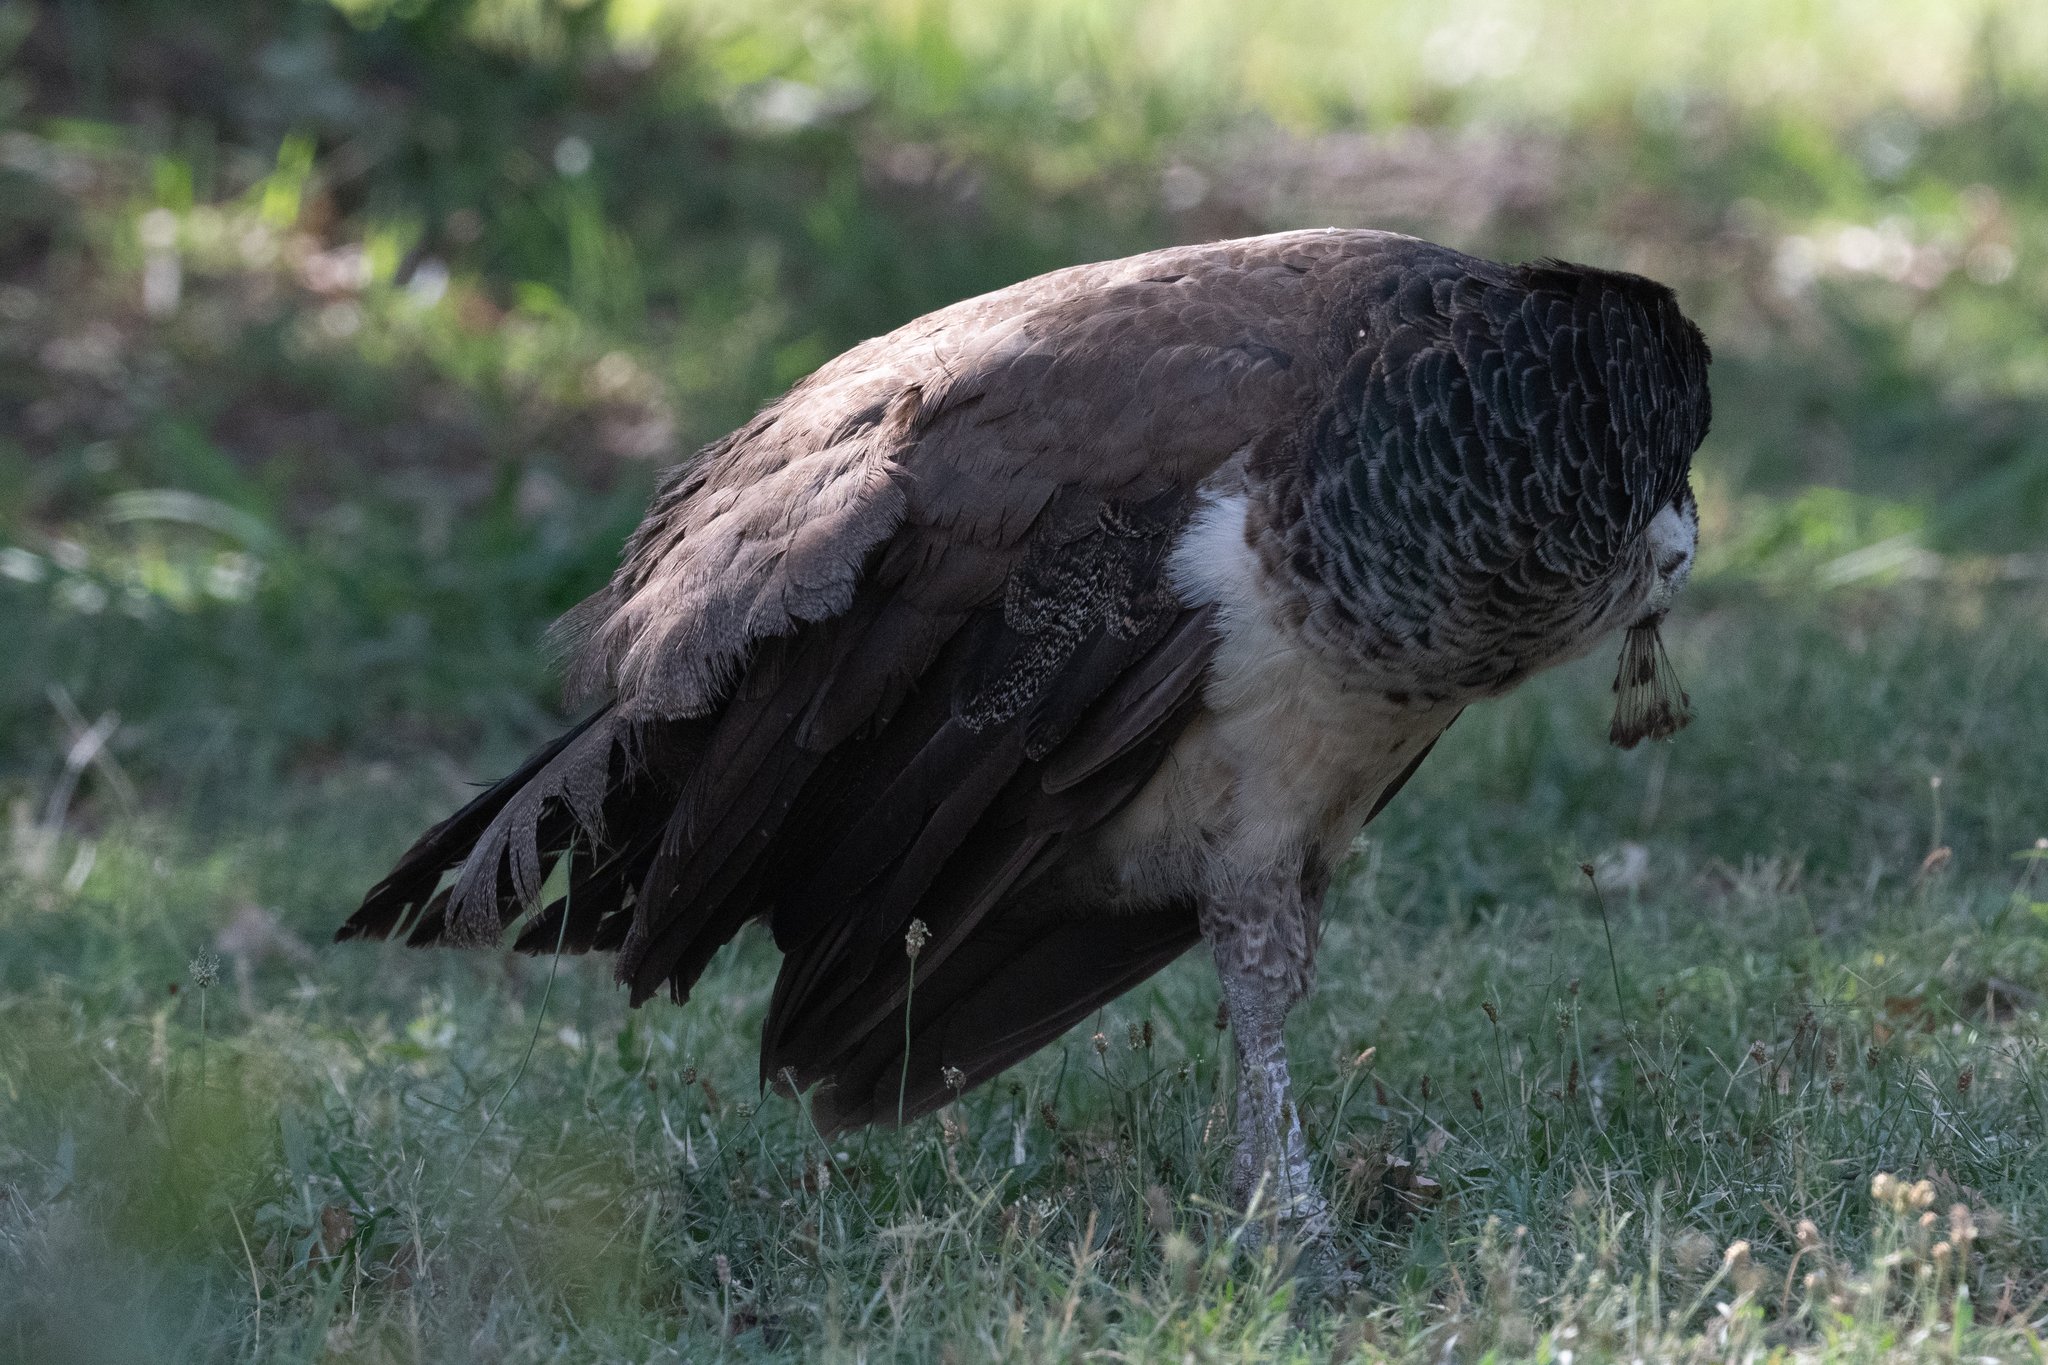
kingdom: Animalia
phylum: Chordata
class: Aves
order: Galliformes
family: Phasianidae
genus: Pavo
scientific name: Pavo cristatus
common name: Indian peafowl
